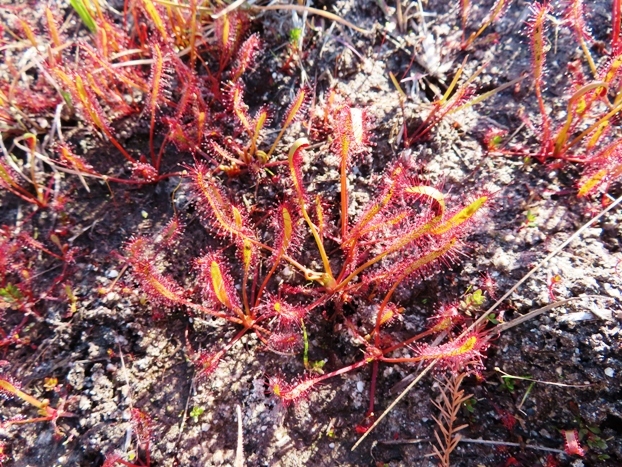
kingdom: Plantae
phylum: Tracheophyta
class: Magnoliopsida
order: Caryophyllales
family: Droseraceae
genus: Drosera
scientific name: Drosera capensis
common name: Cape sundew
